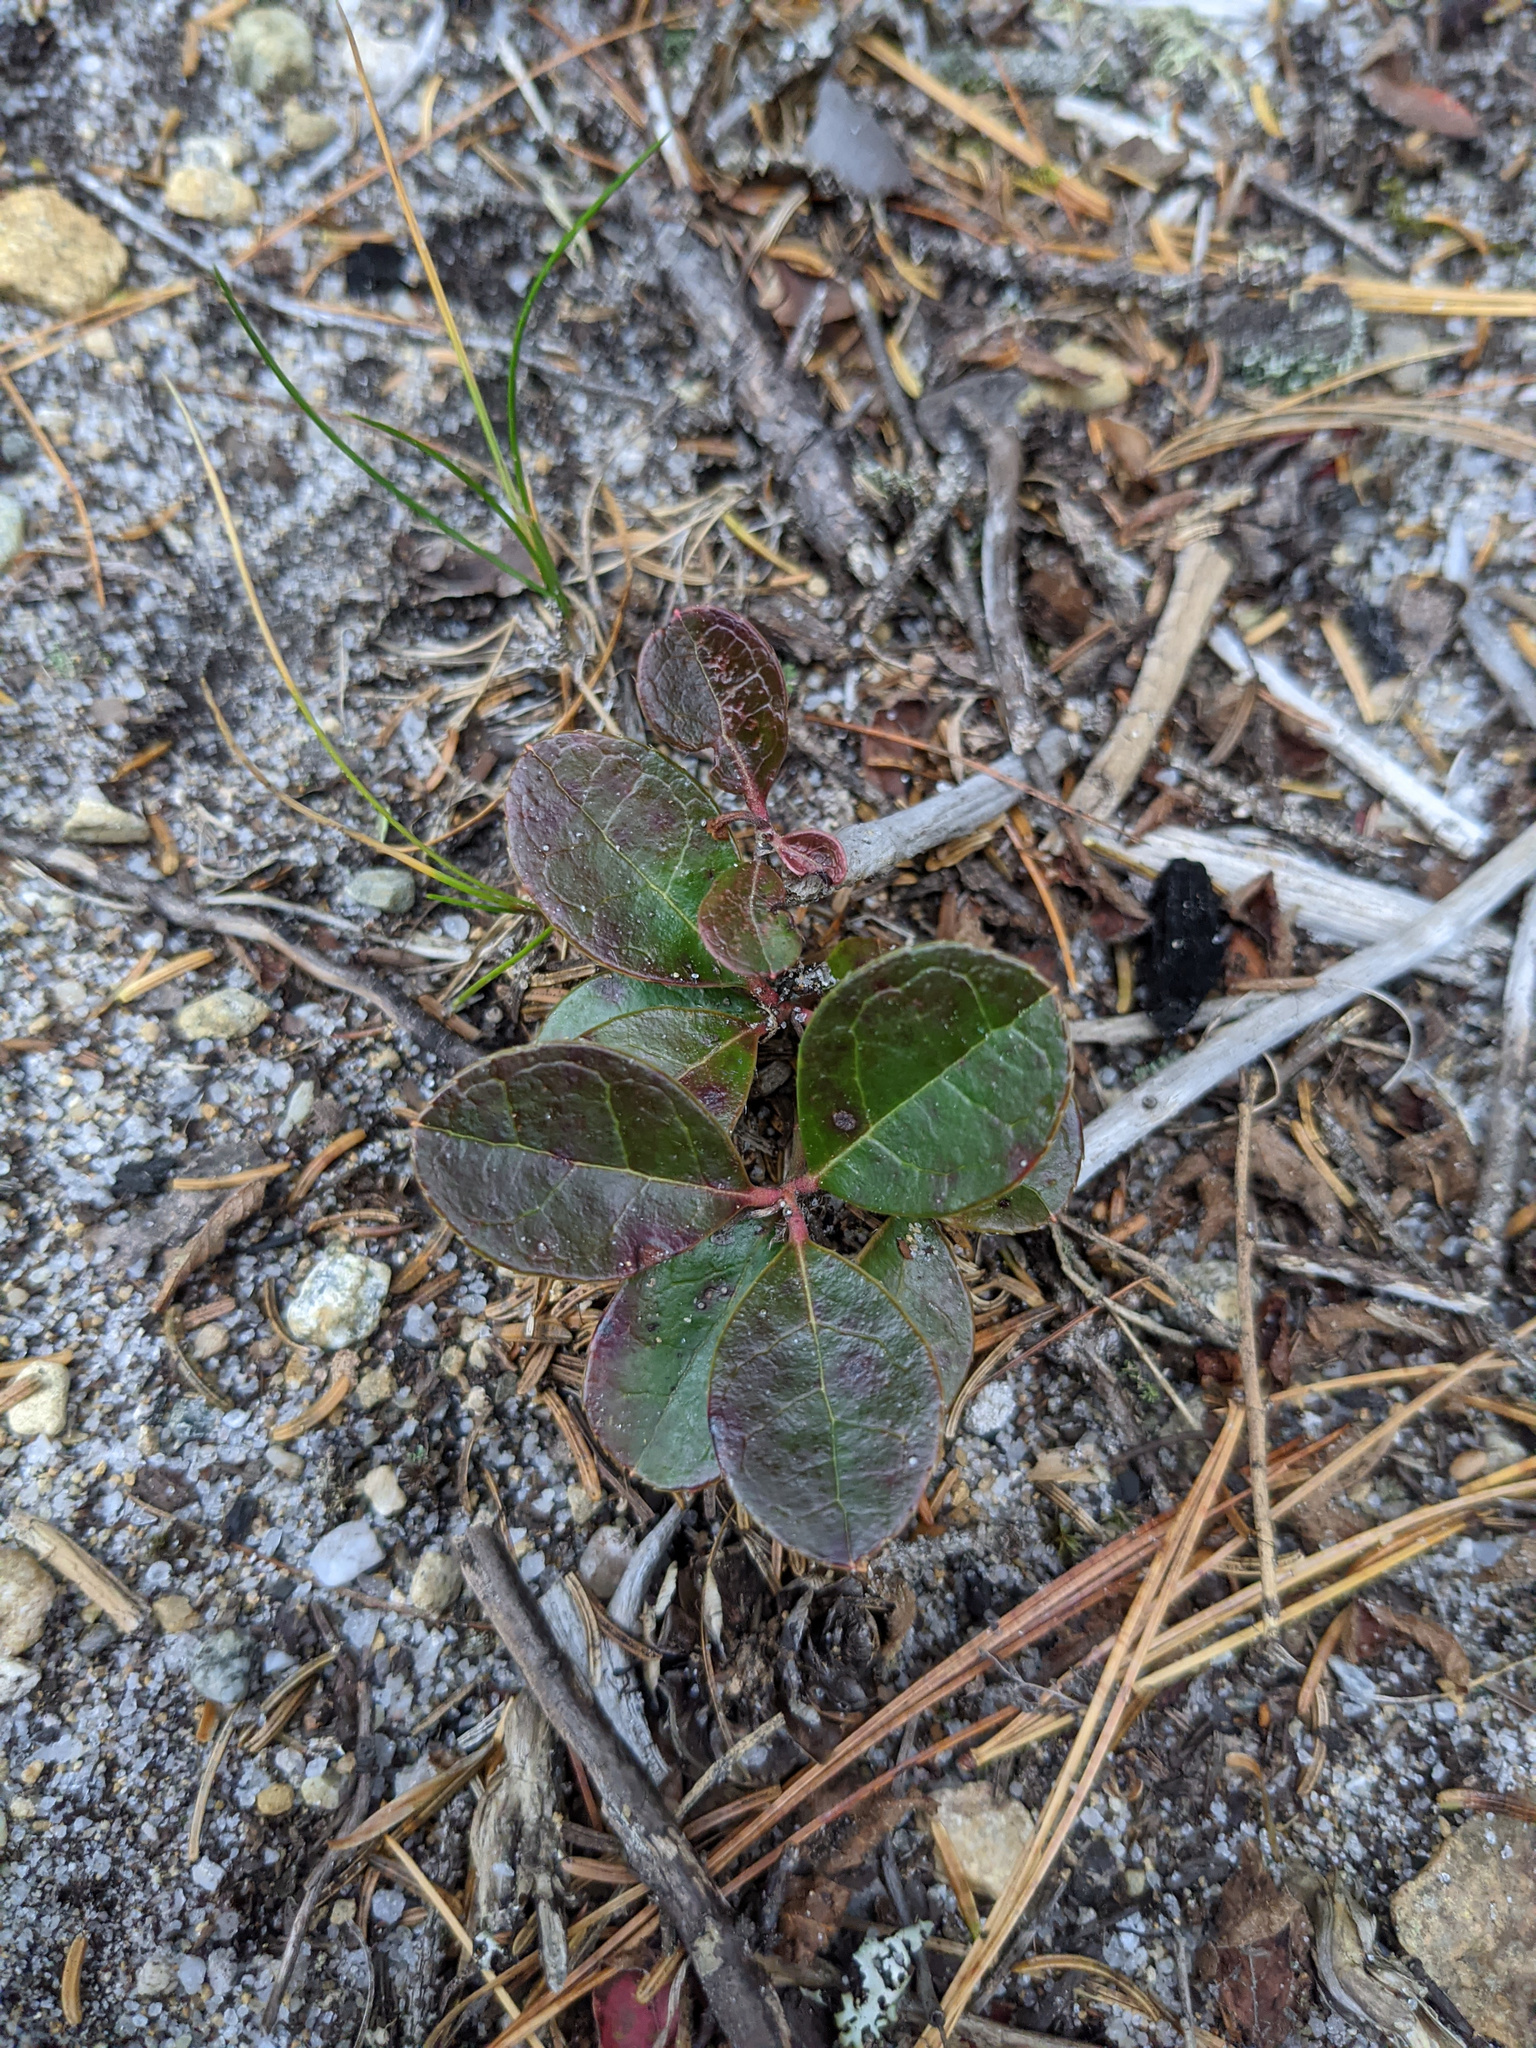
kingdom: Plantae
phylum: Tracheophyta
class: Magnoliopsida
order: Ericales
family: Ericaceae
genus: Gaultheria
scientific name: Gaultheria procumbens
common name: Checkerberry
